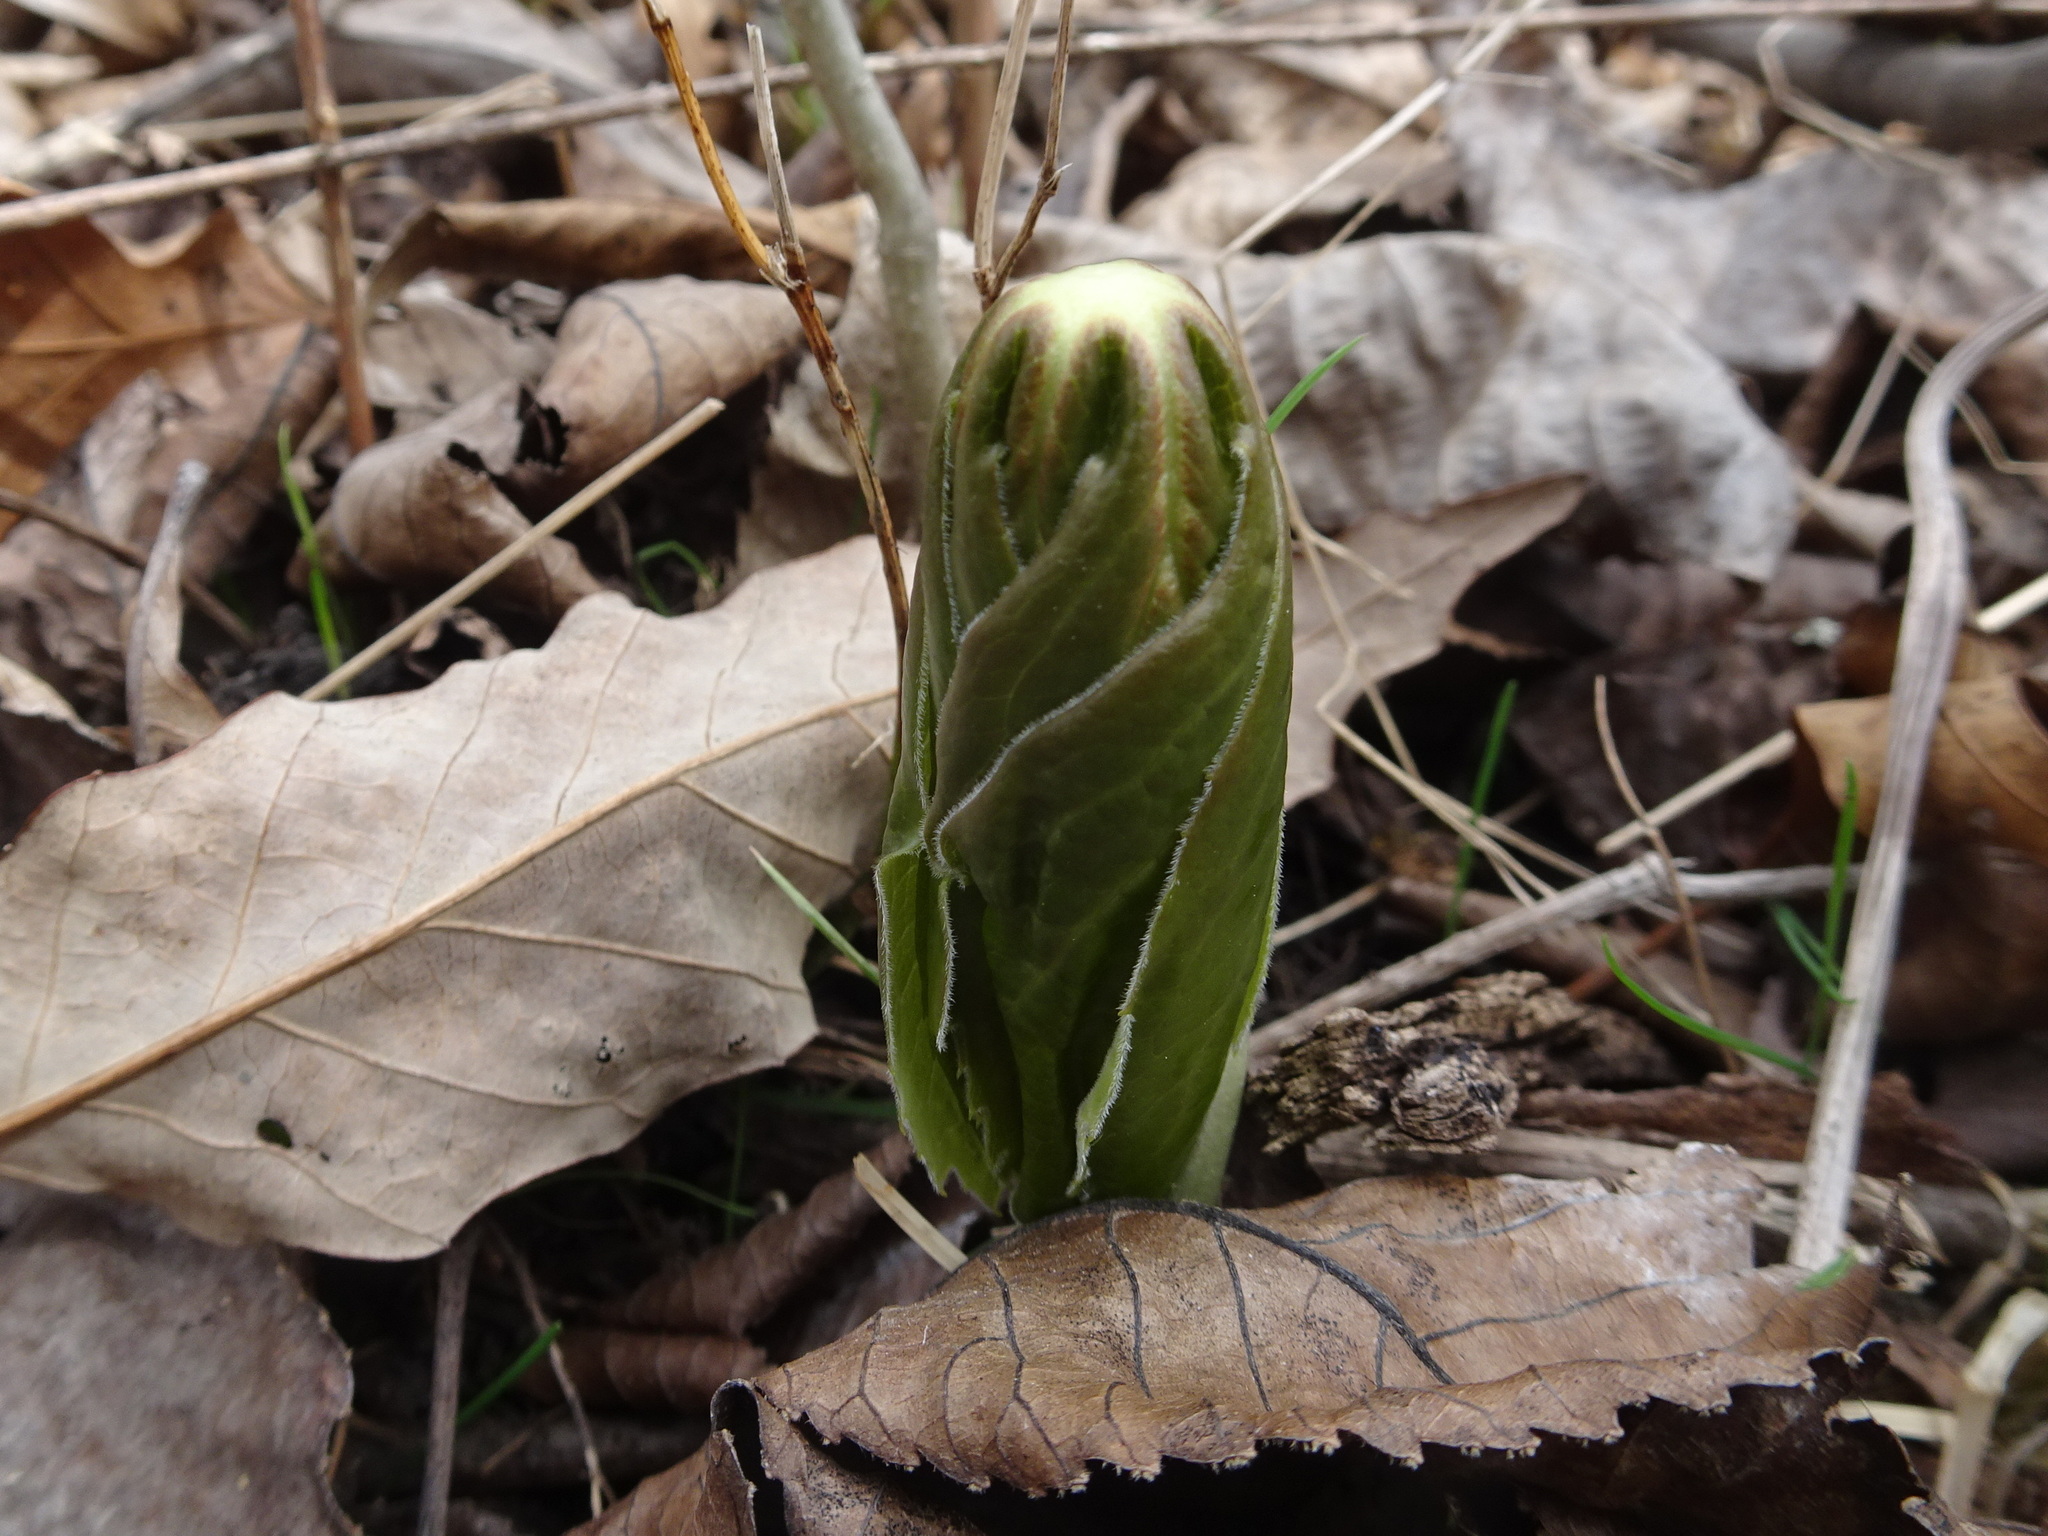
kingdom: Plantae
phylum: Tracheophyta
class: Magnoliopsida
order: Ranunculales
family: Berberidaceae
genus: Podophyllum
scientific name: Podophyllum peltatum
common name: Wild mandrake
